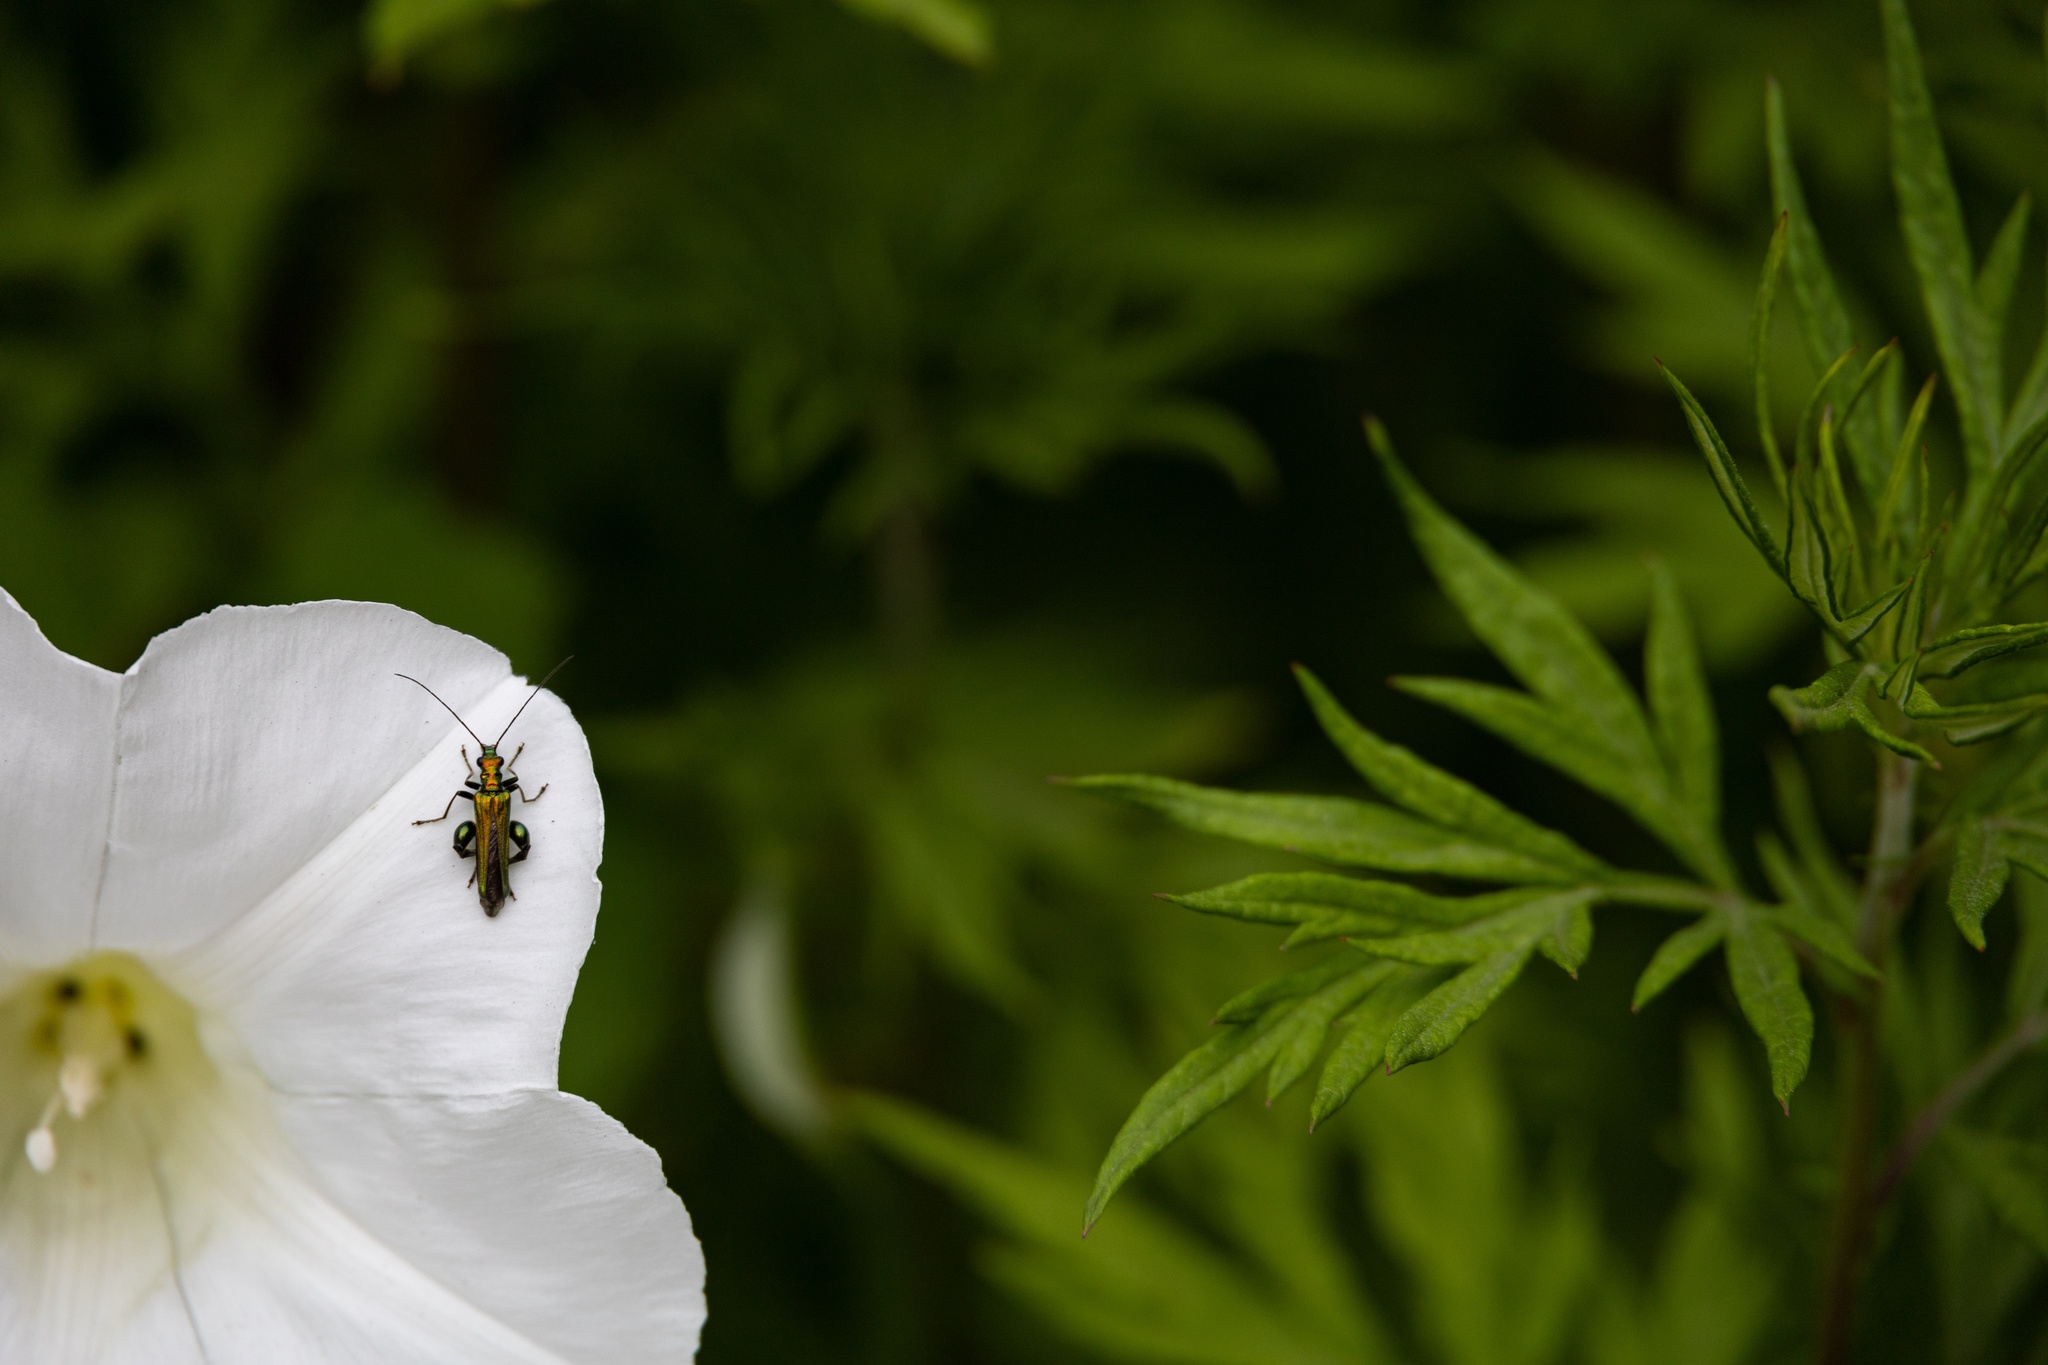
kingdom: Animalia
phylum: Arthropoda
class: Insecta
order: Coleoptera
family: Oedemeridae
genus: Oedemera
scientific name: Oedemera nobilis
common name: Swollen-thighed beetle
